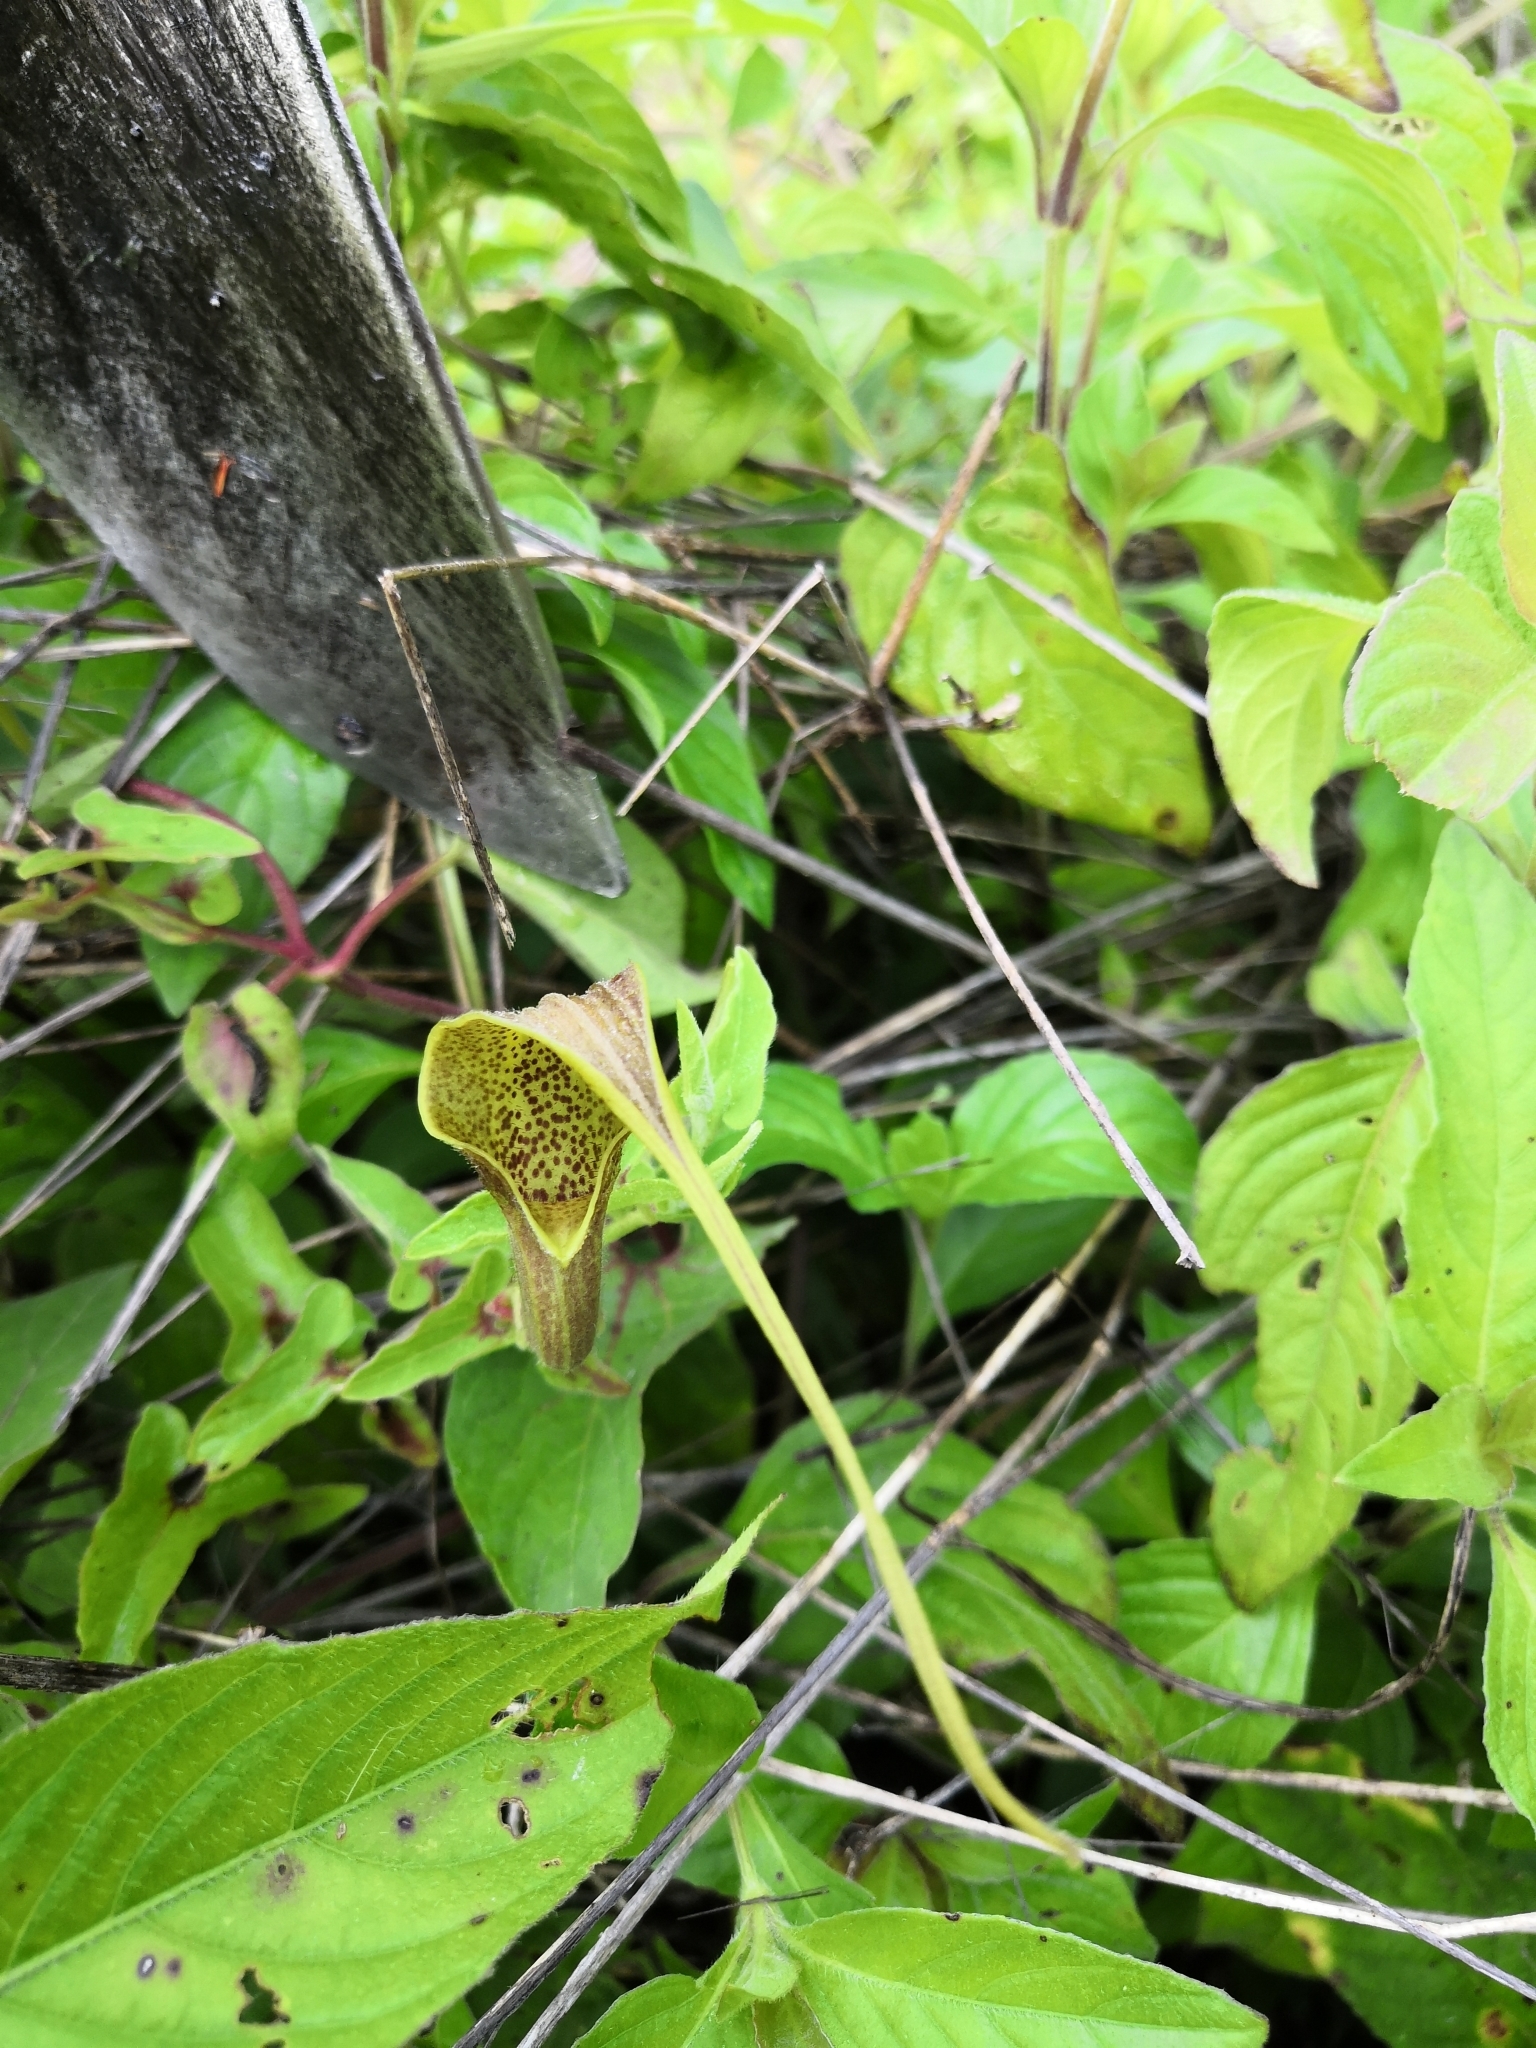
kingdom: Plantae
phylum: Tracheophyta
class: Magnoliopsida
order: Piperales
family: Aristolochiaceae
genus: Aristolochia
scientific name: Aristolochia pringlei
